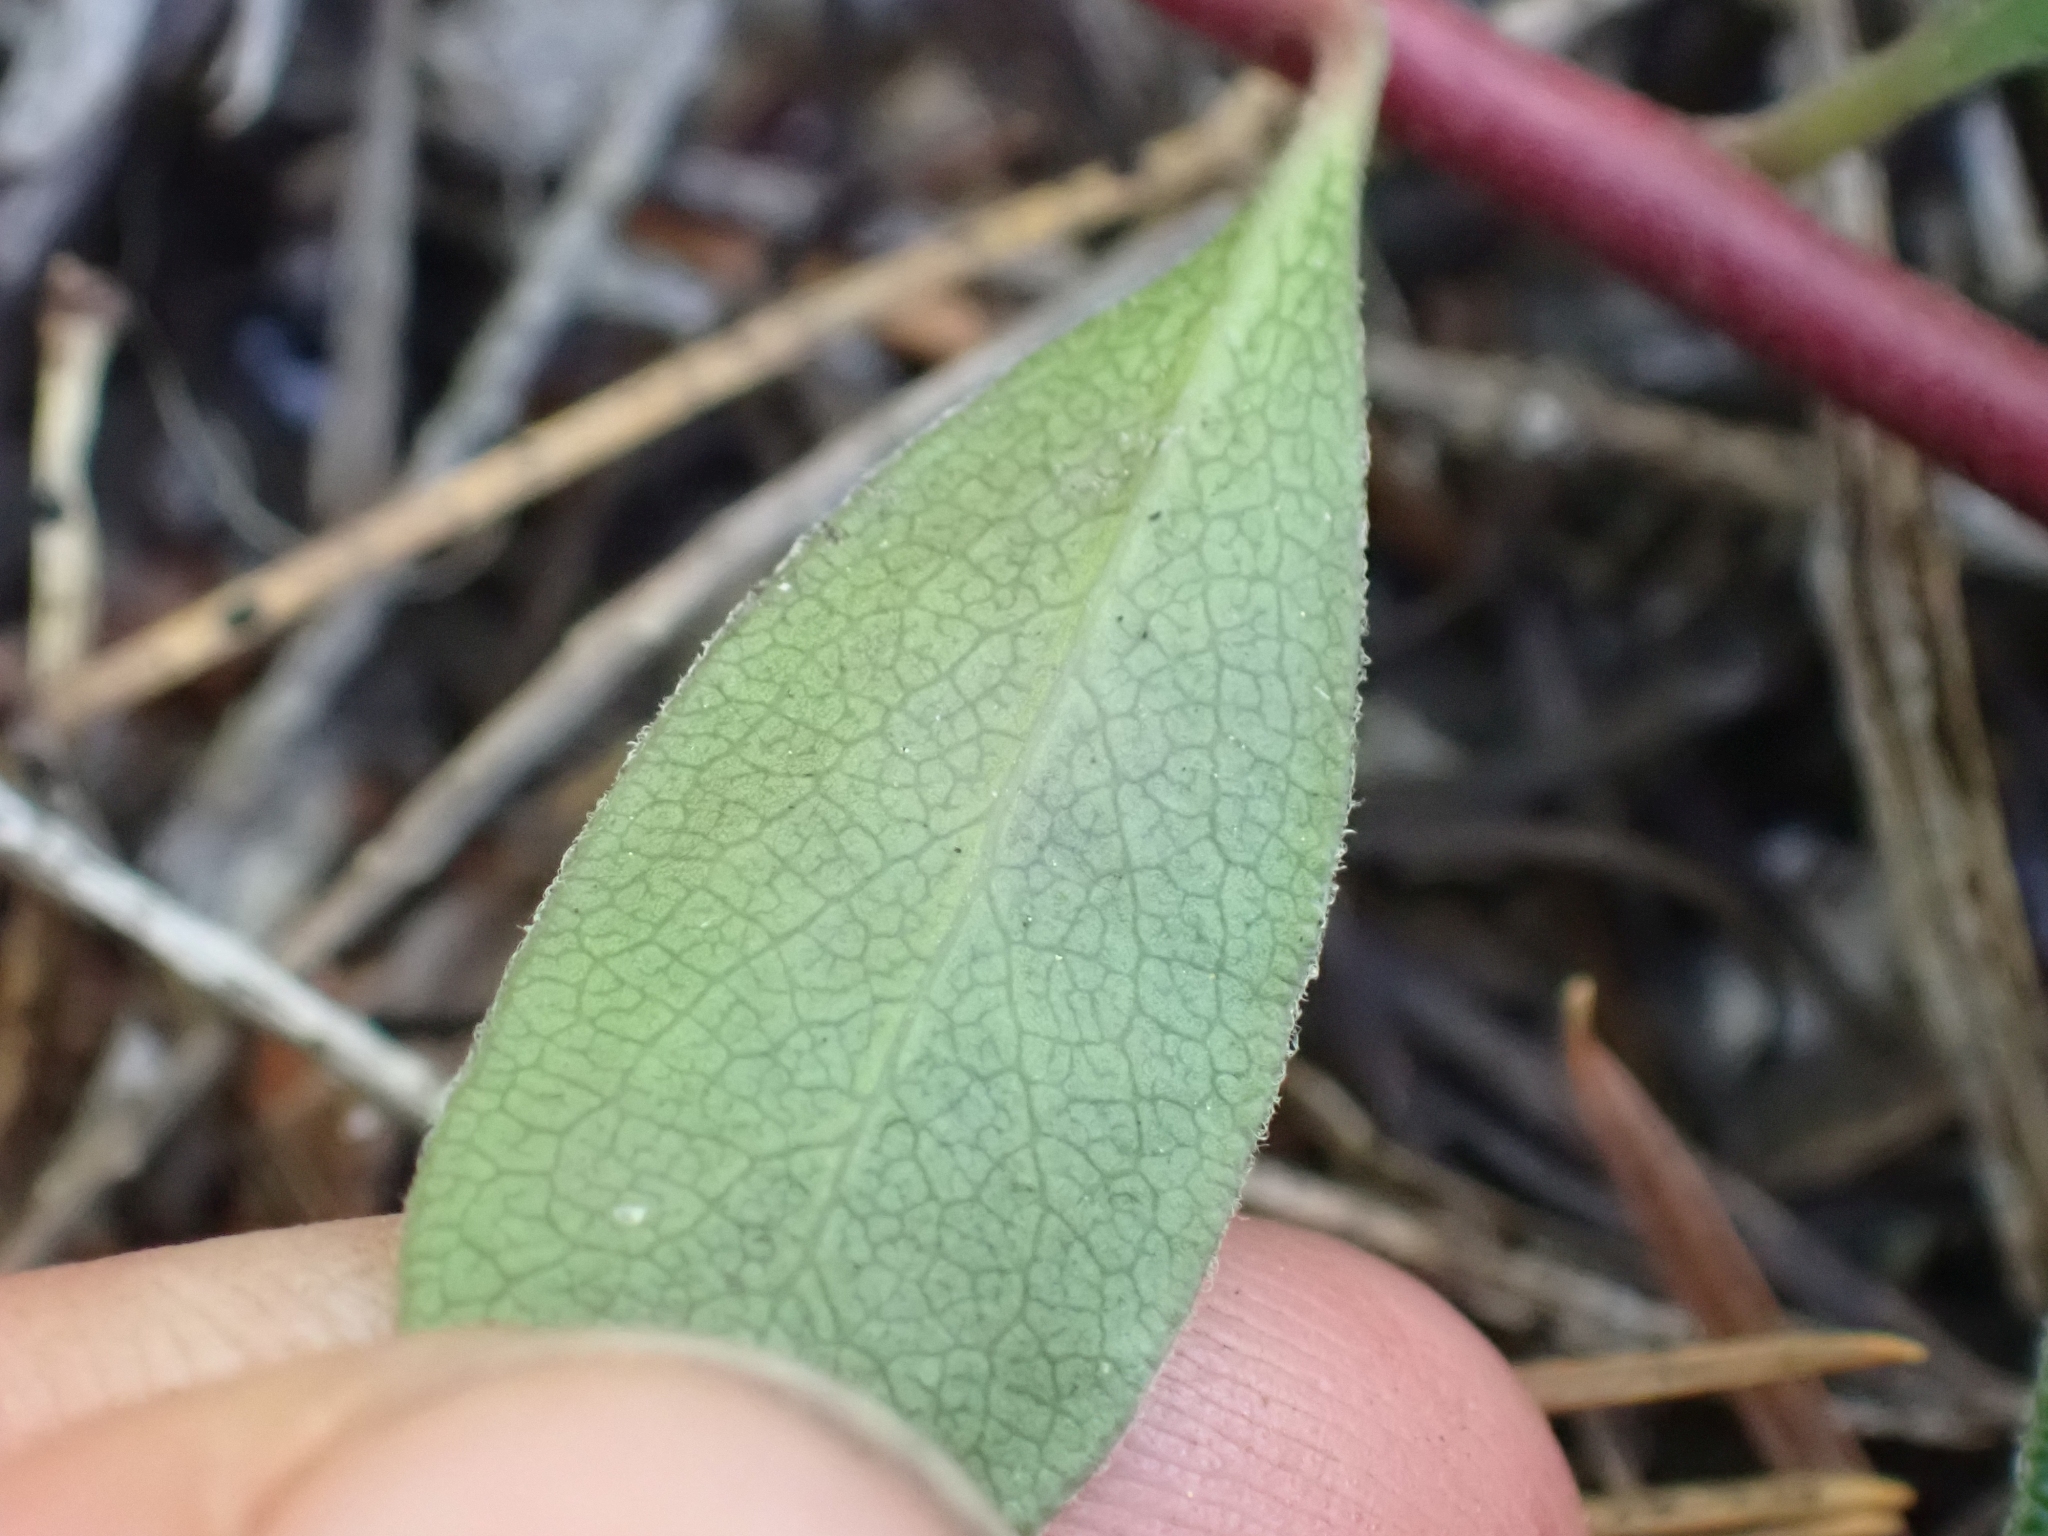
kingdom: Plantae
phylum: Tracheophyta
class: Magnoliopsida
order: Ericales
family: Ericaceae
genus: Arctostaphylos
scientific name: Arctostaphylos uva-ursi
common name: Bearberry
